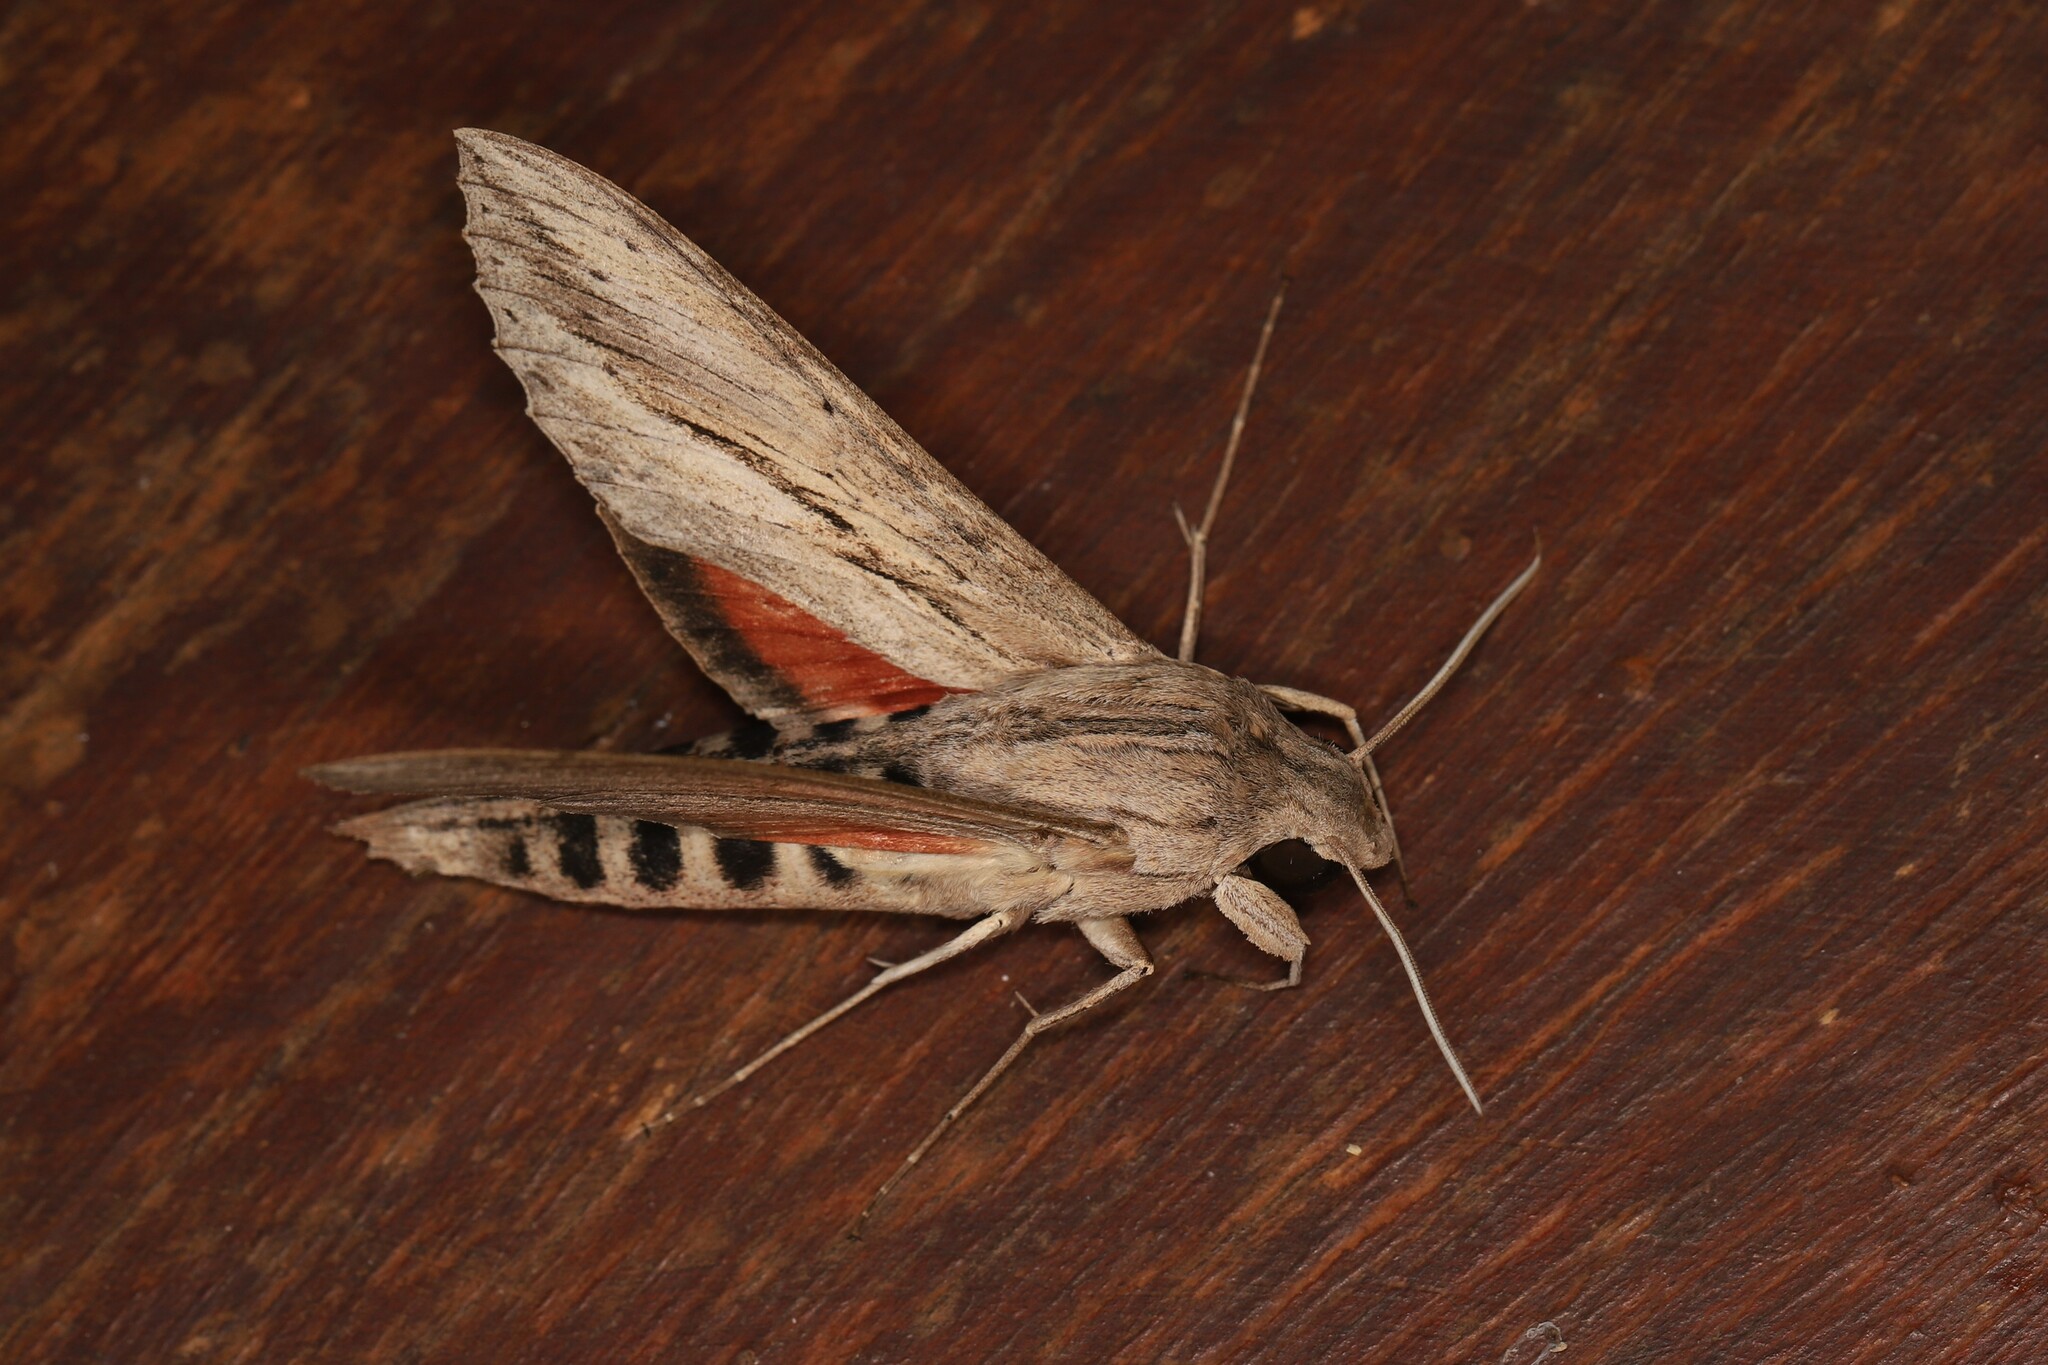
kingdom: Animalia
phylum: Arthropoda
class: Insecta
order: Lepidoptera
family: Sphingidae
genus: Erinnyis
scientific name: Erinnyis ello
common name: Ello sphinx
